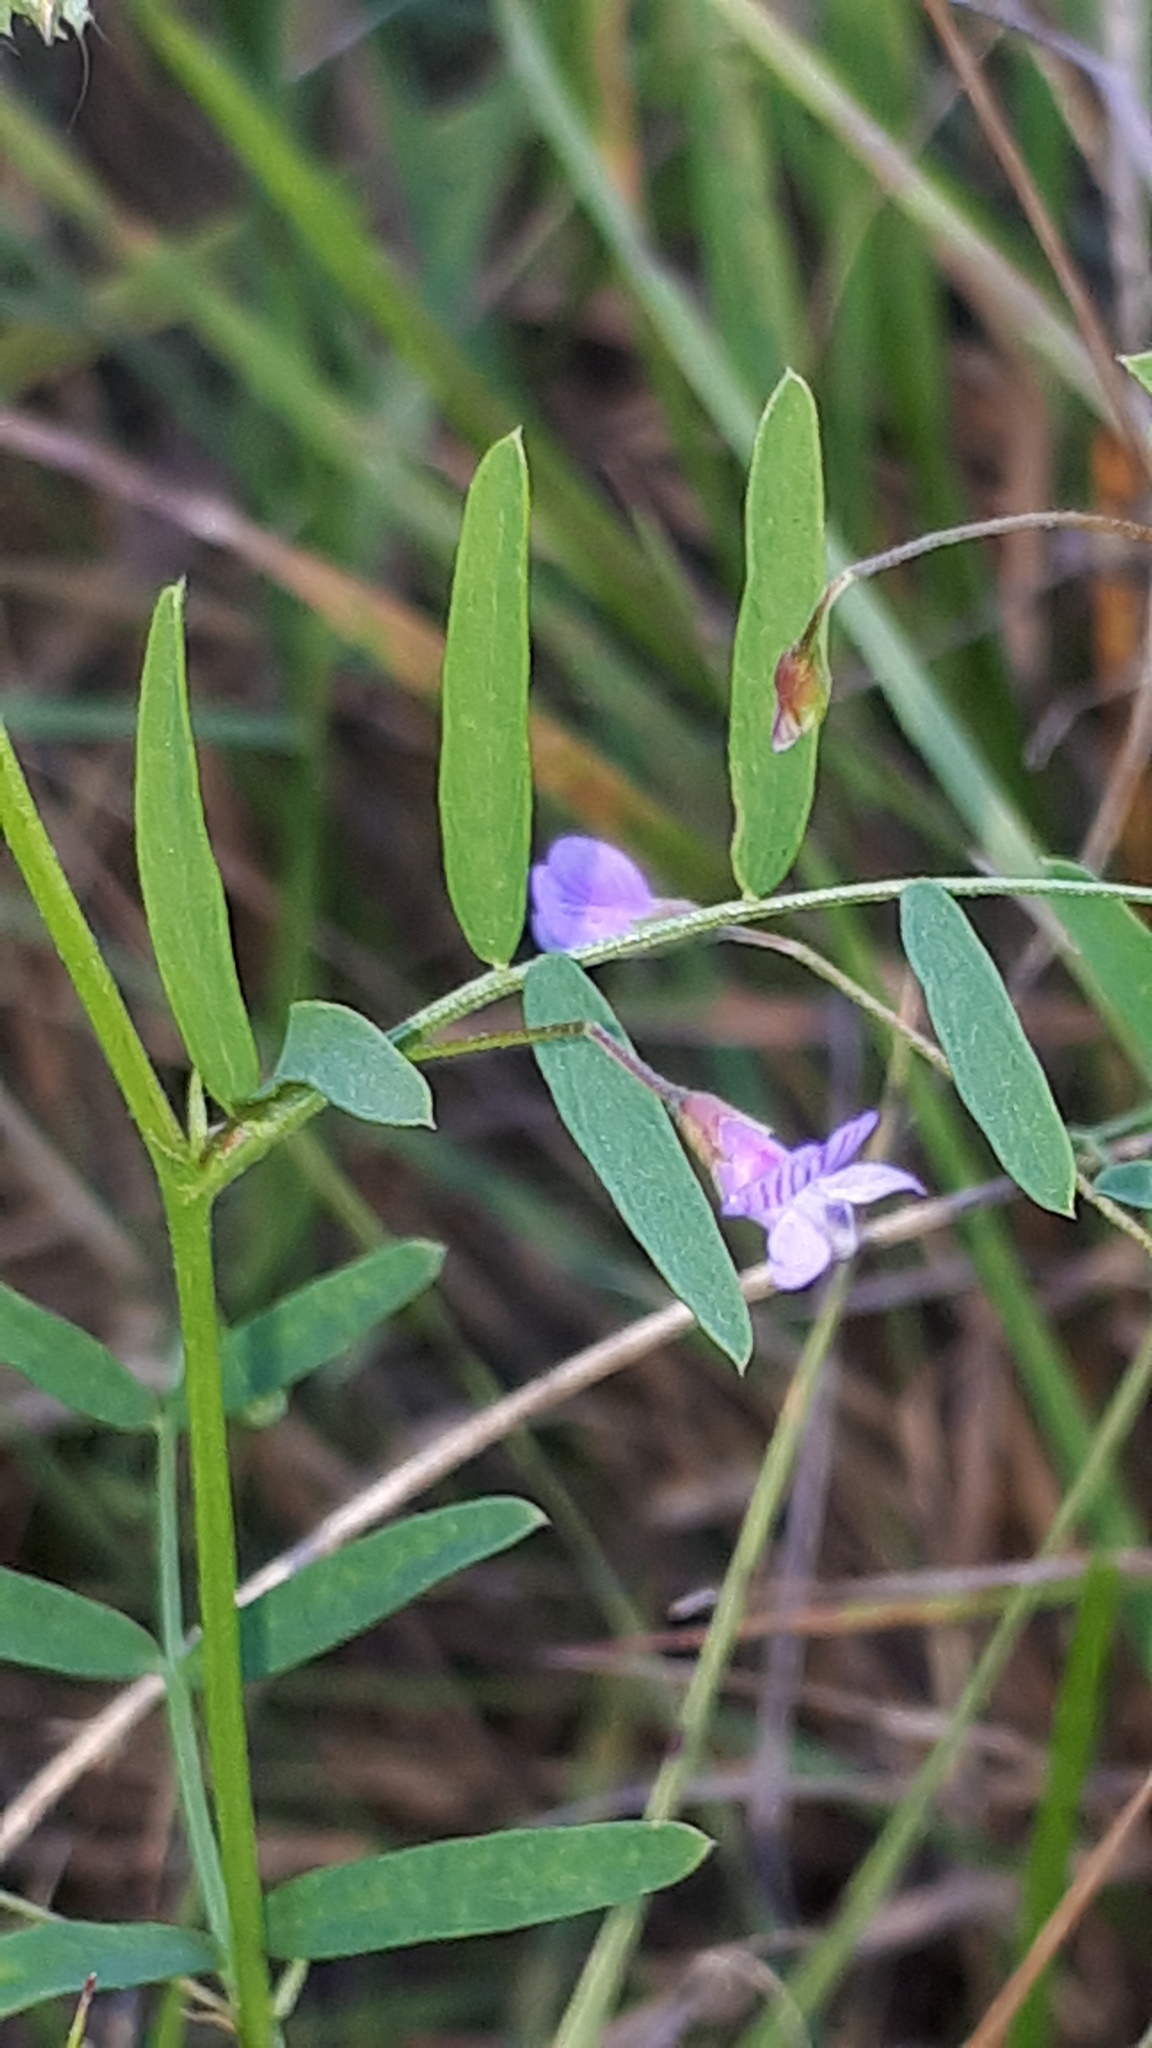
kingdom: Plantae
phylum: Tracheophyta
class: Magnoliopsida
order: Fabales
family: Fabaceae
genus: Vicia
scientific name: Vicia tetrasperma
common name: Smooth tare
